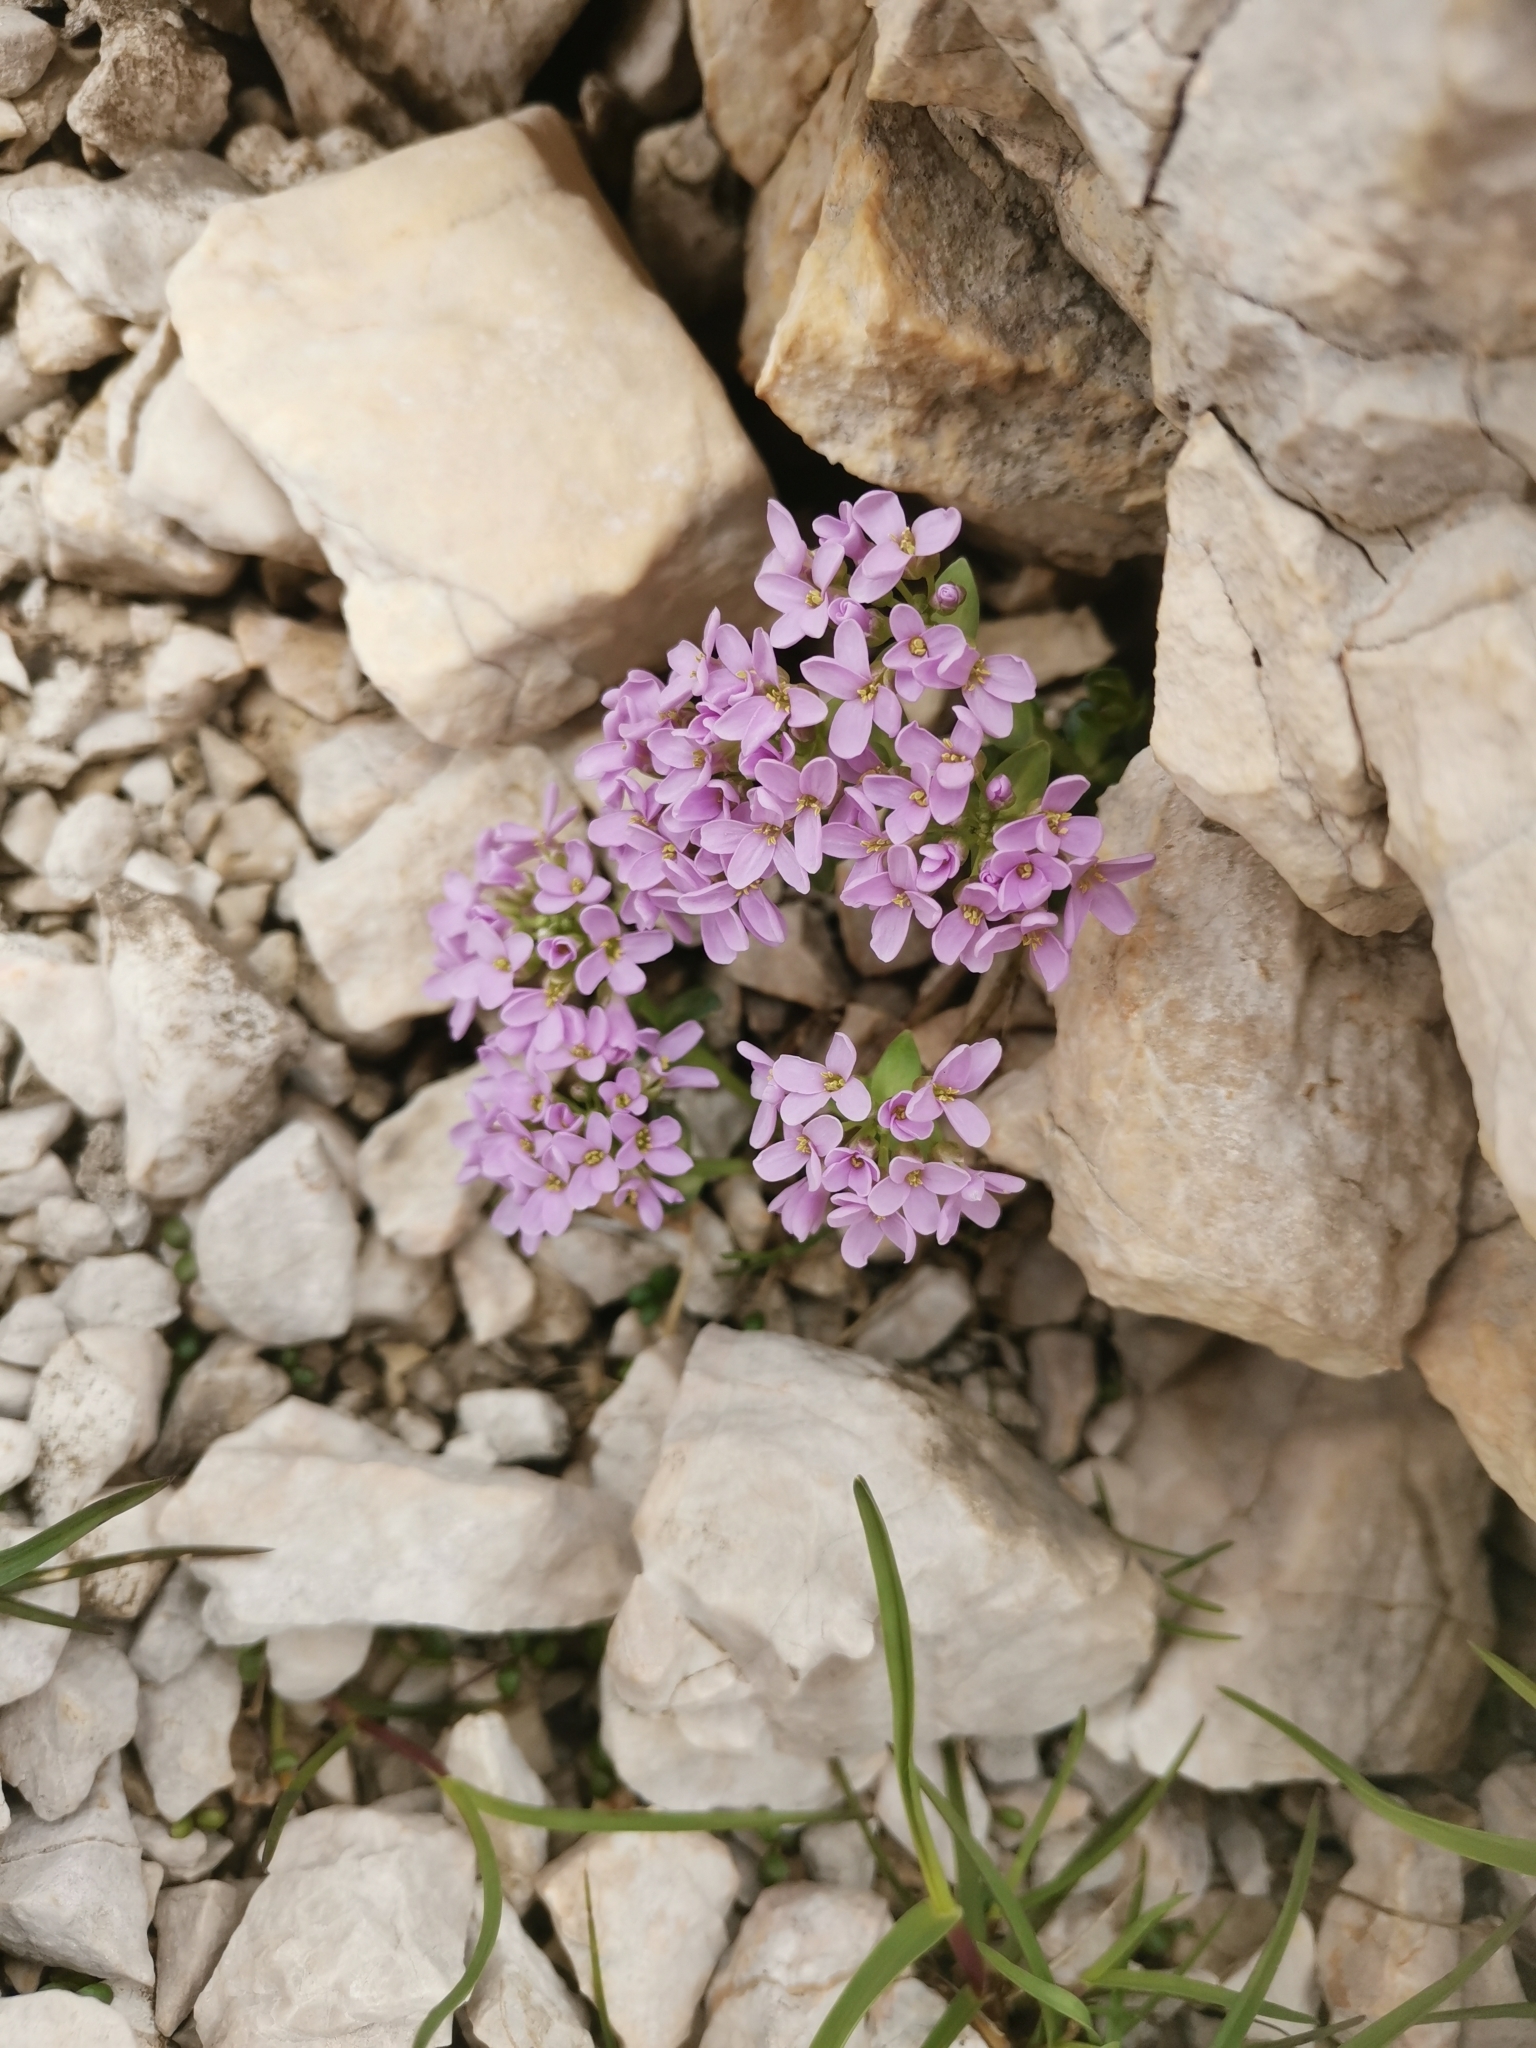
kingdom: Plantae
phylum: Tracheophyta
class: Magnoliopsida
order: Brassicales
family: Brassicaceae
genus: Noccaea
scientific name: Noccaea rotundifolia
